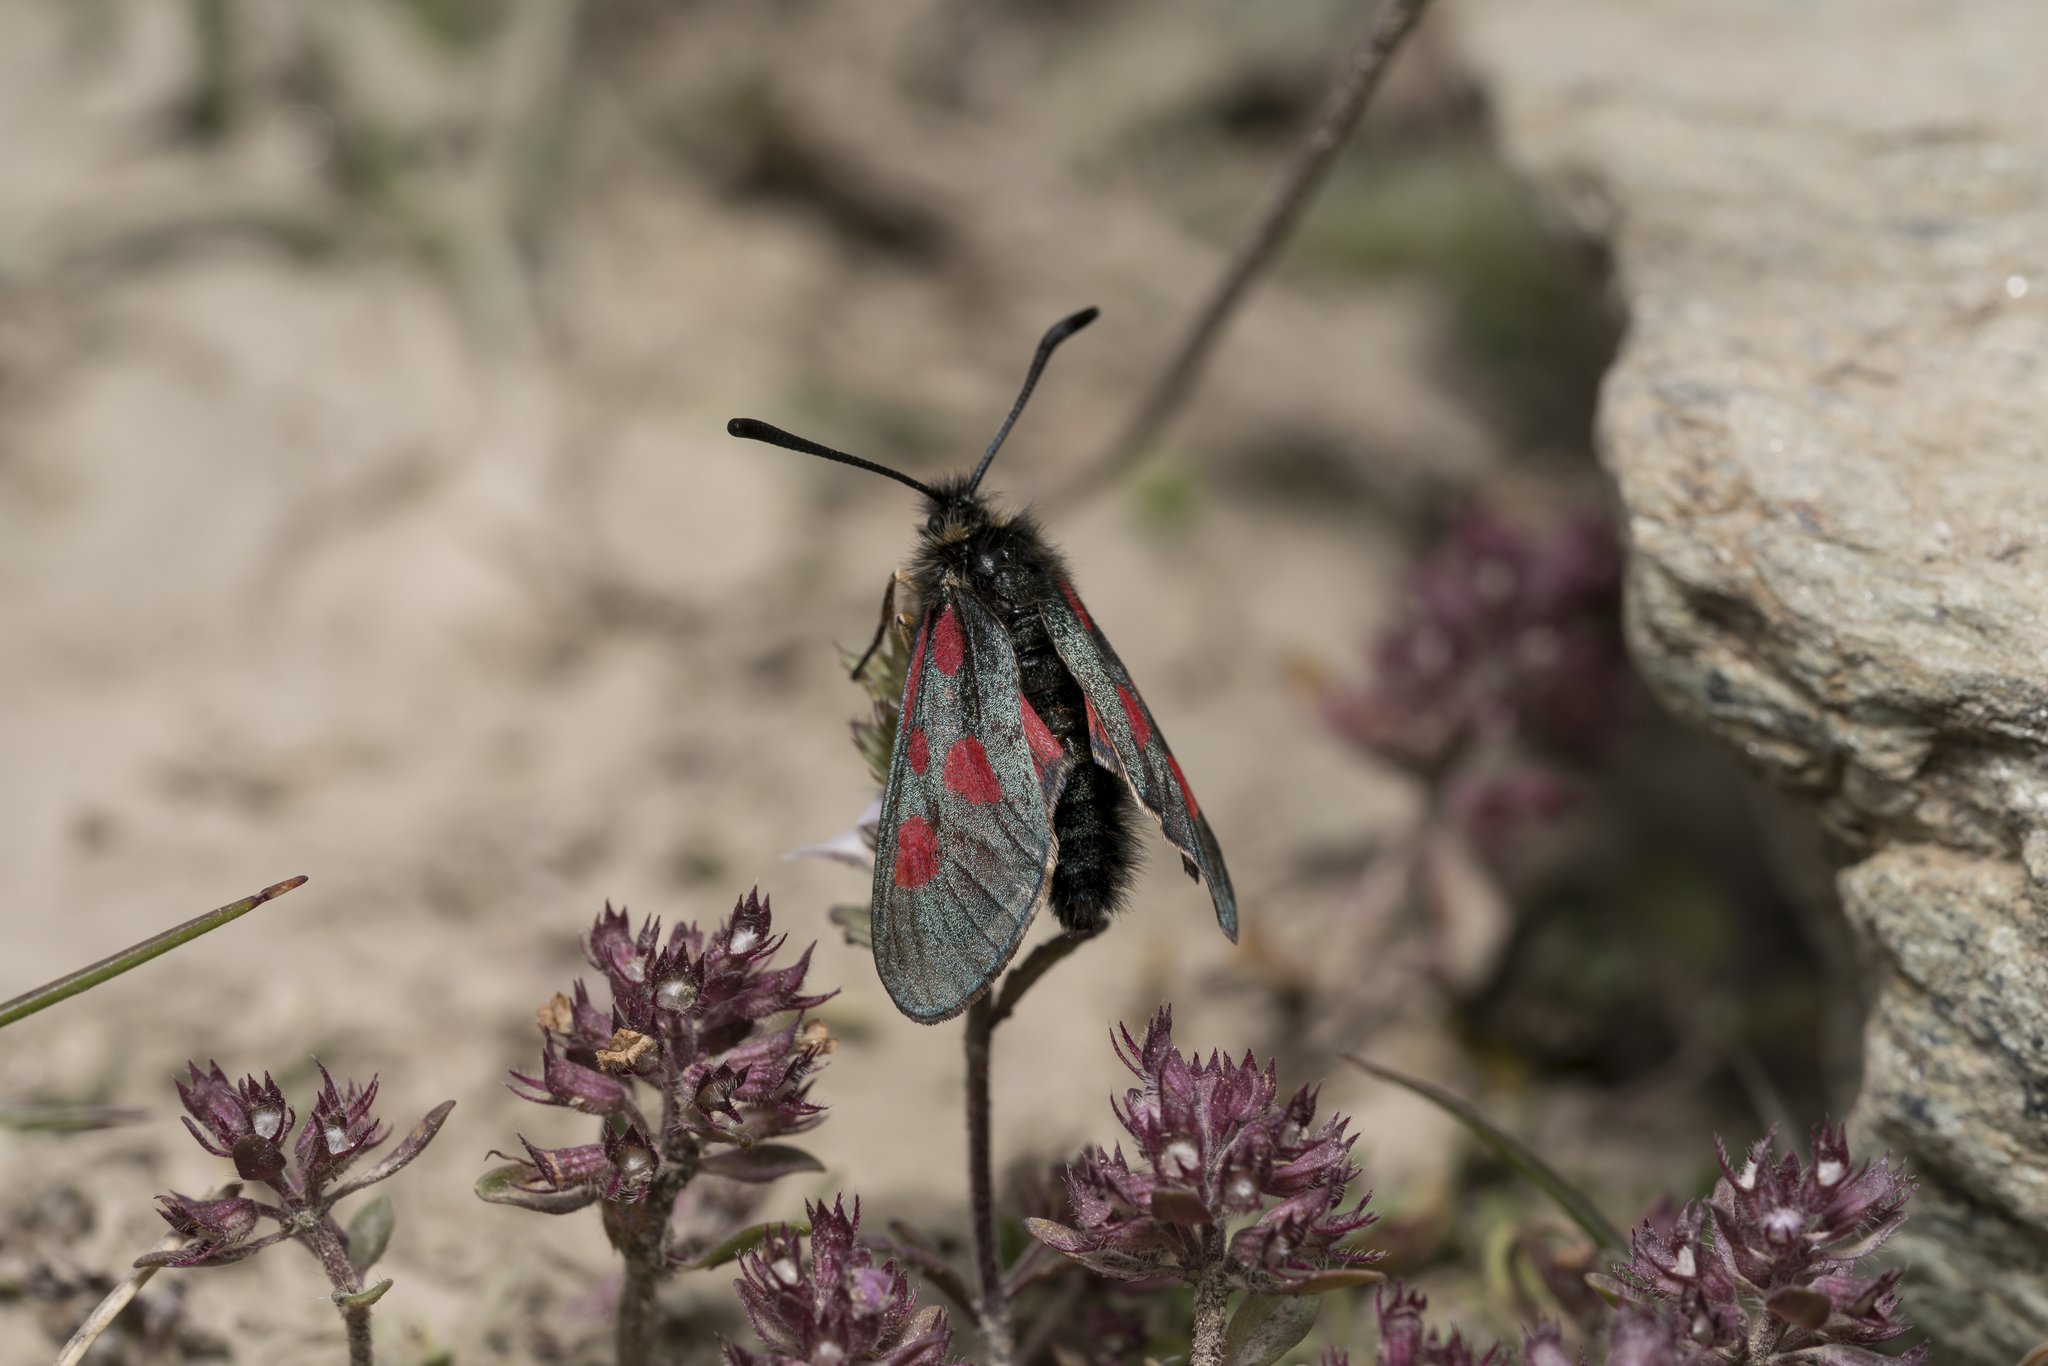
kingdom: Animalia
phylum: Arthropoda
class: Insecta
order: Lepidoptera
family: Zygaenidae
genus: Zygaena
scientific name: Zygaena exulans
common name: Scotch burnet
